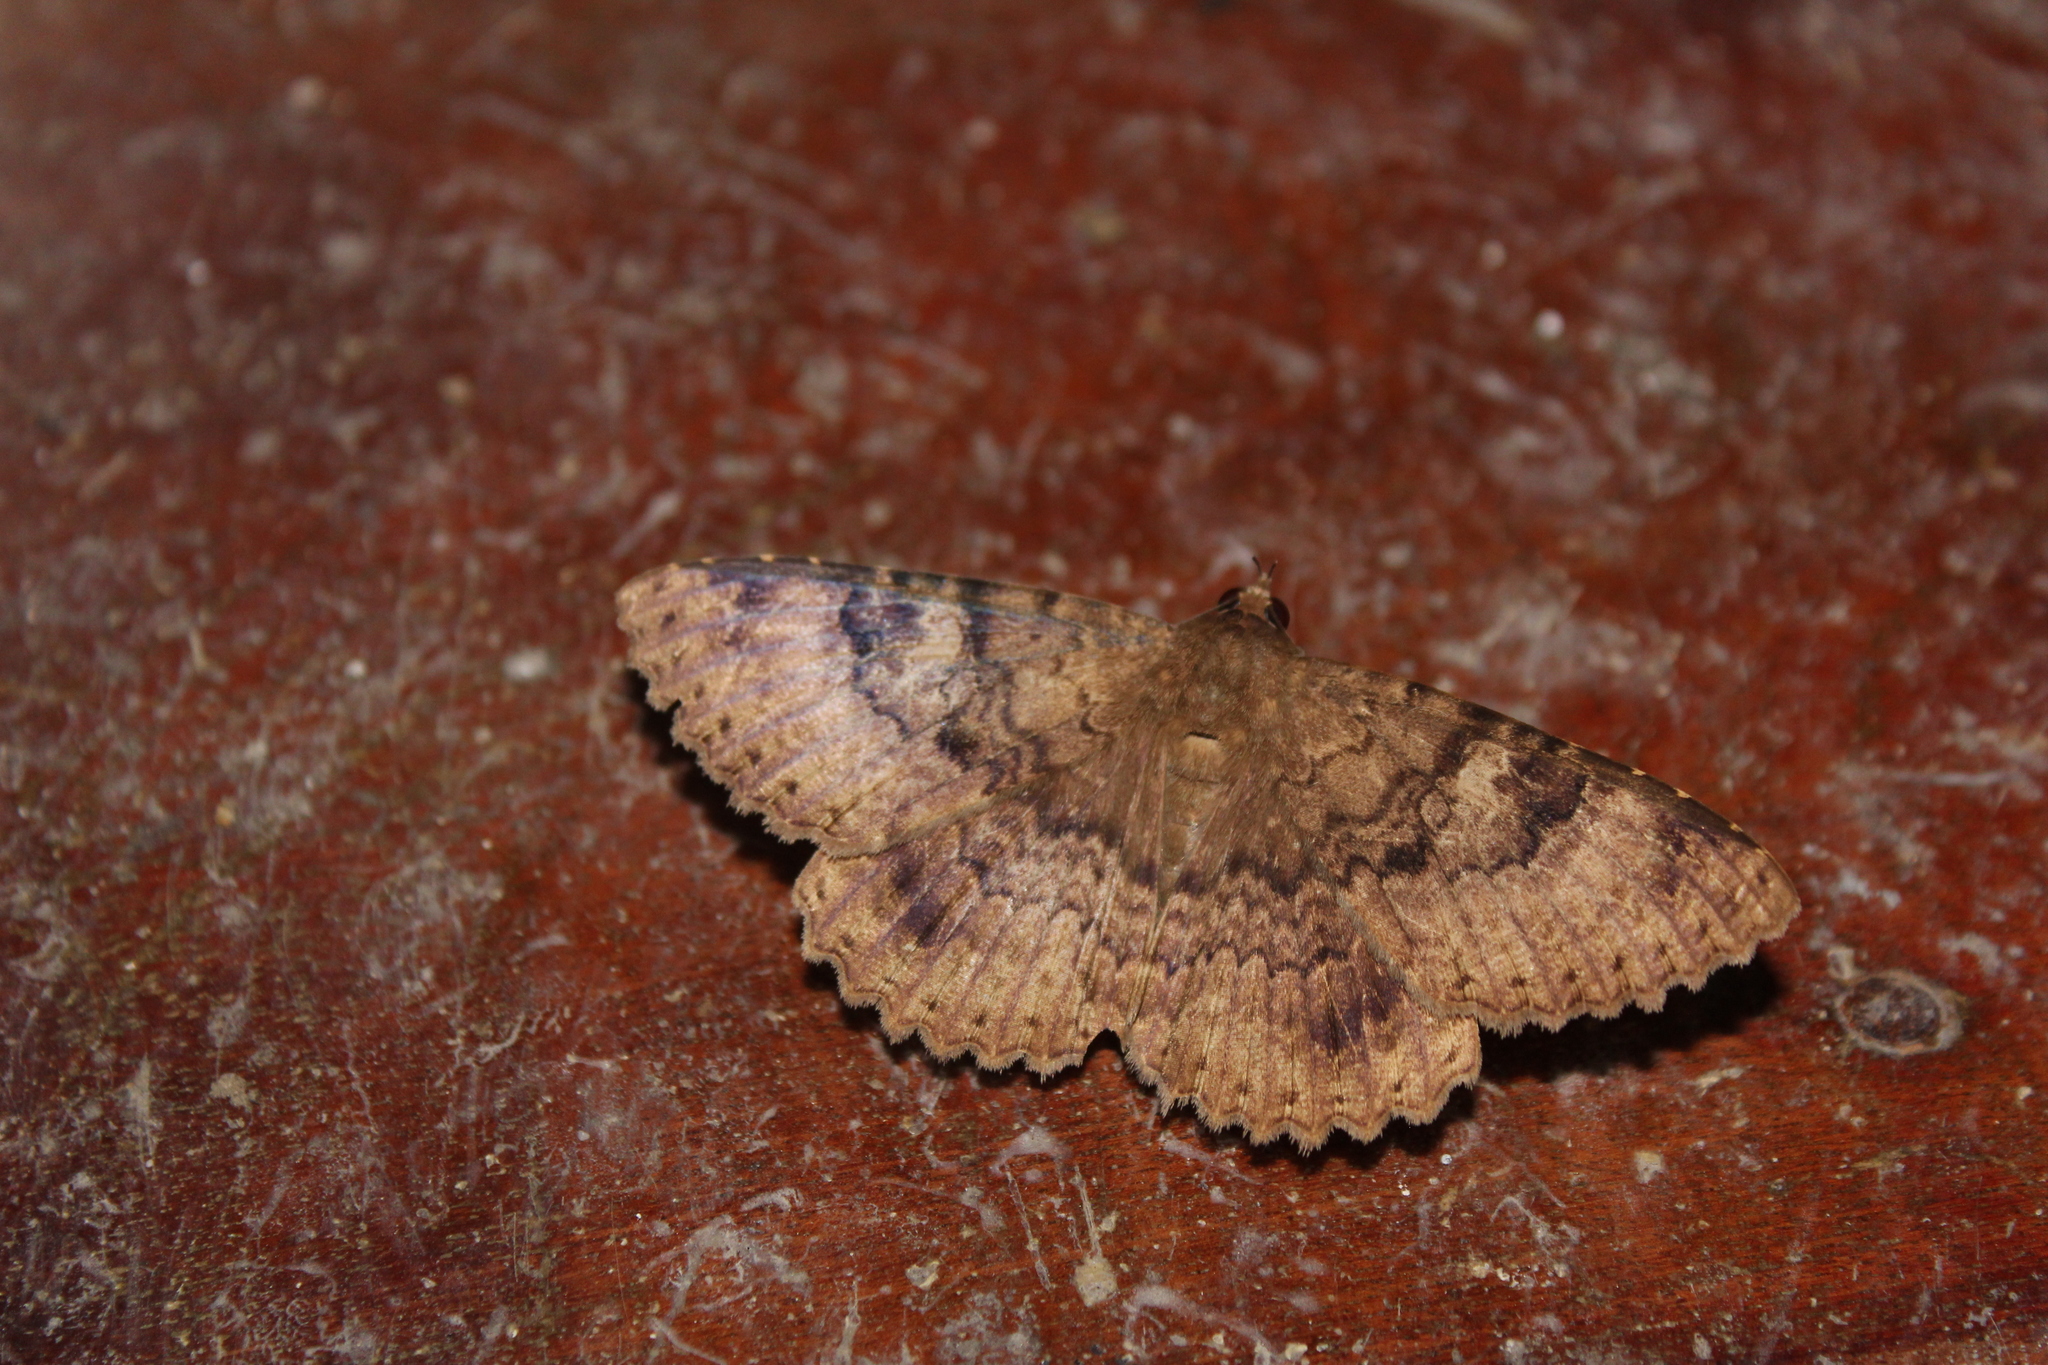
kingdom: Animalia
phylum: Arthropoda
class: Insecta
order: Lepidoptera
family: Erebidae
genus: Latebraria
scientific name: Latebraria amphipyroides
